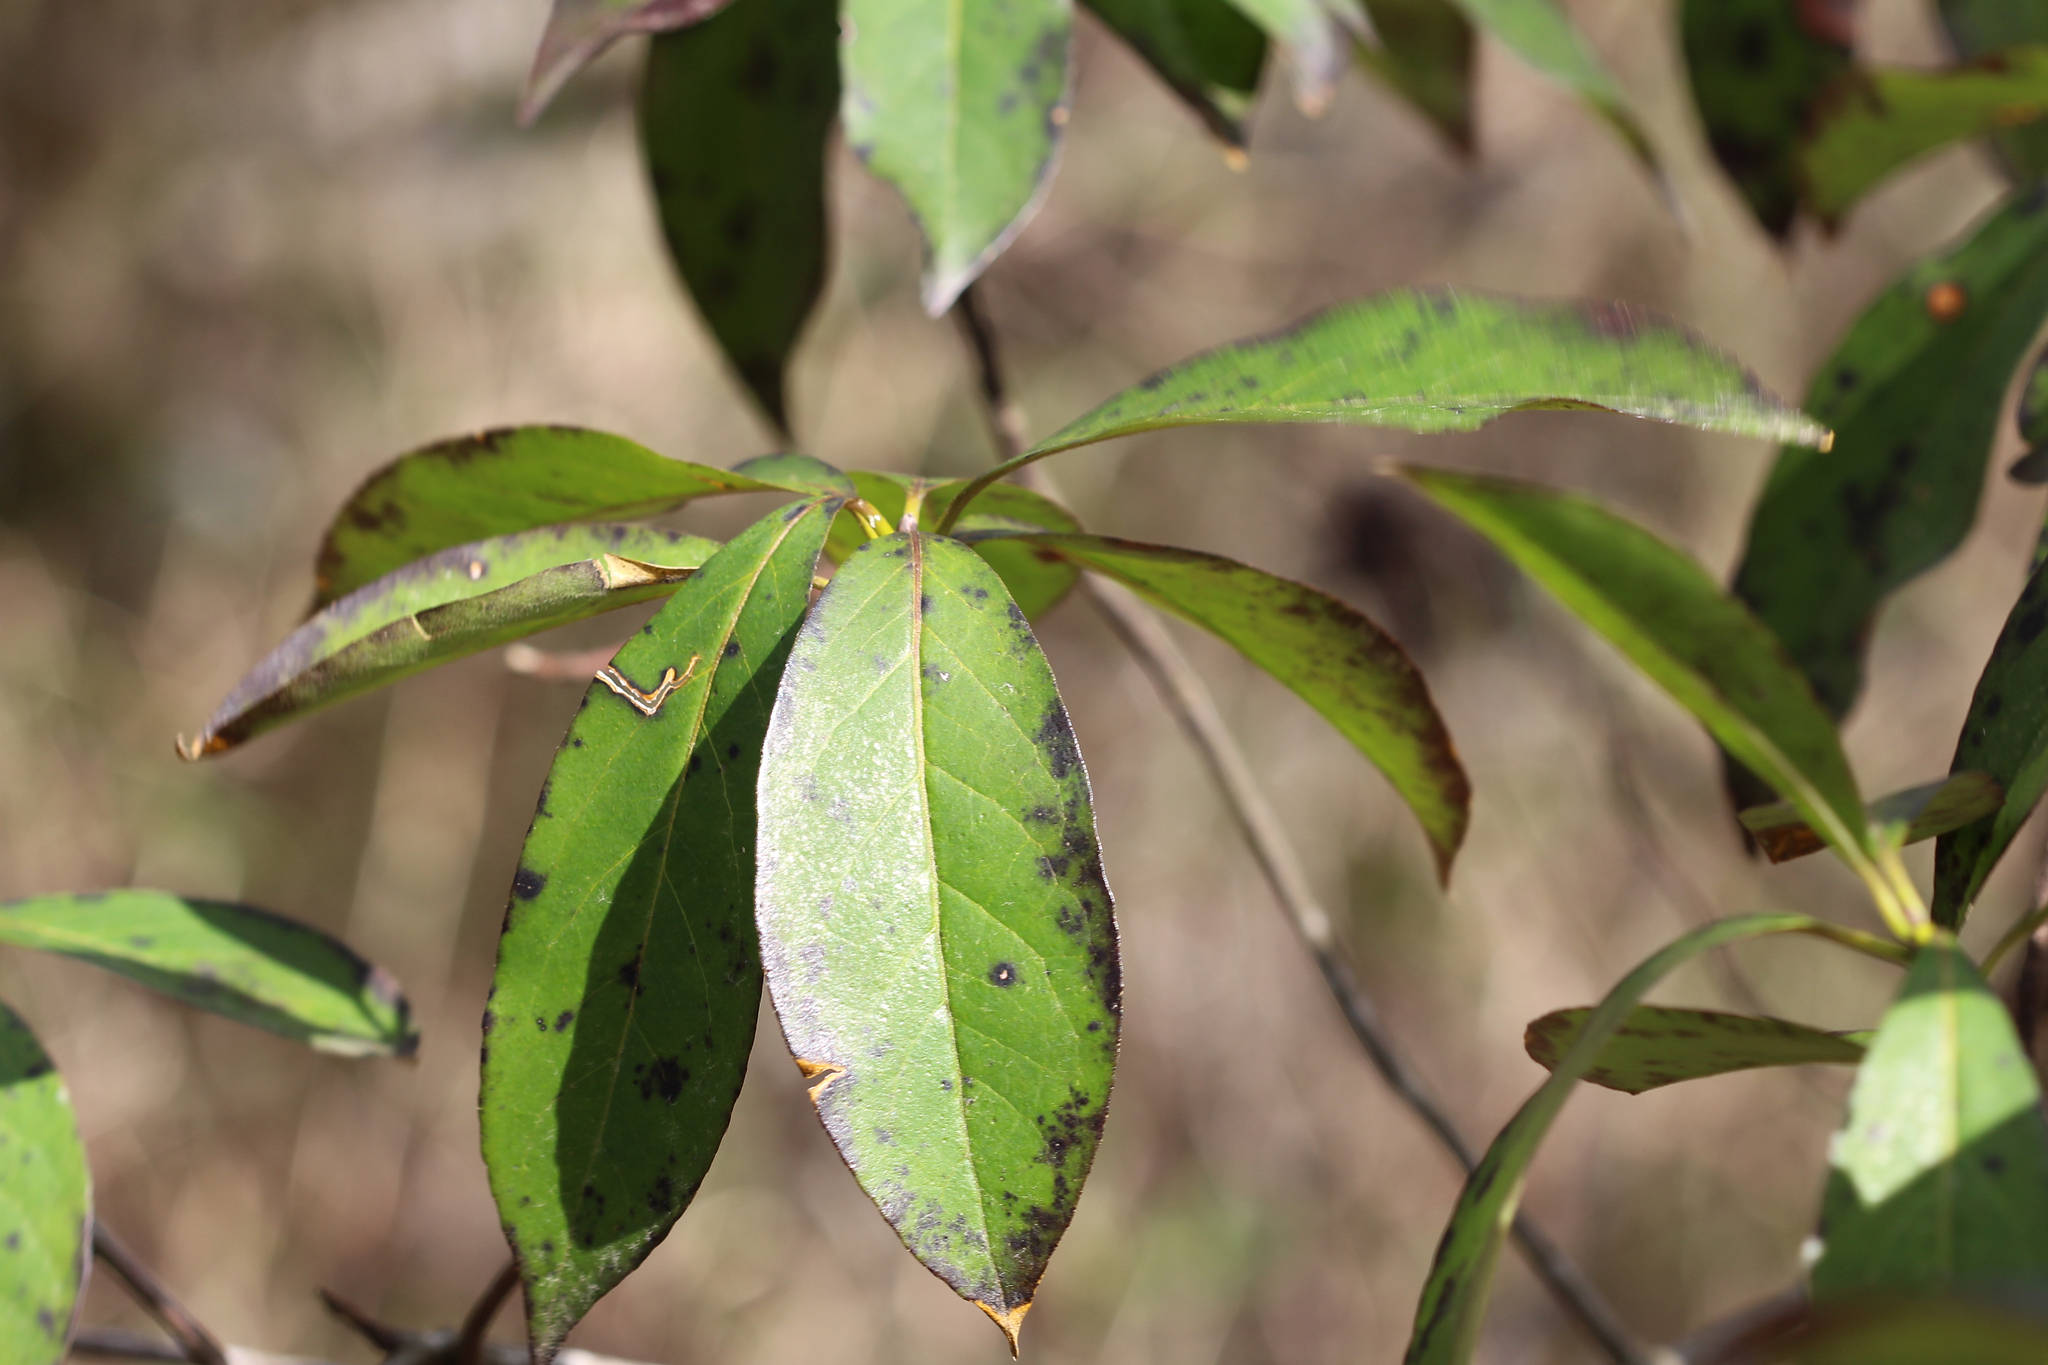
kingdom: Plantae
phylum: Tracheophyta
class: Magnoliopsida
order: Ericales
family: Symplocaceae
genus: Symplocos
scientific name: Symplocos tinctoria
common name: Horse-sugar
